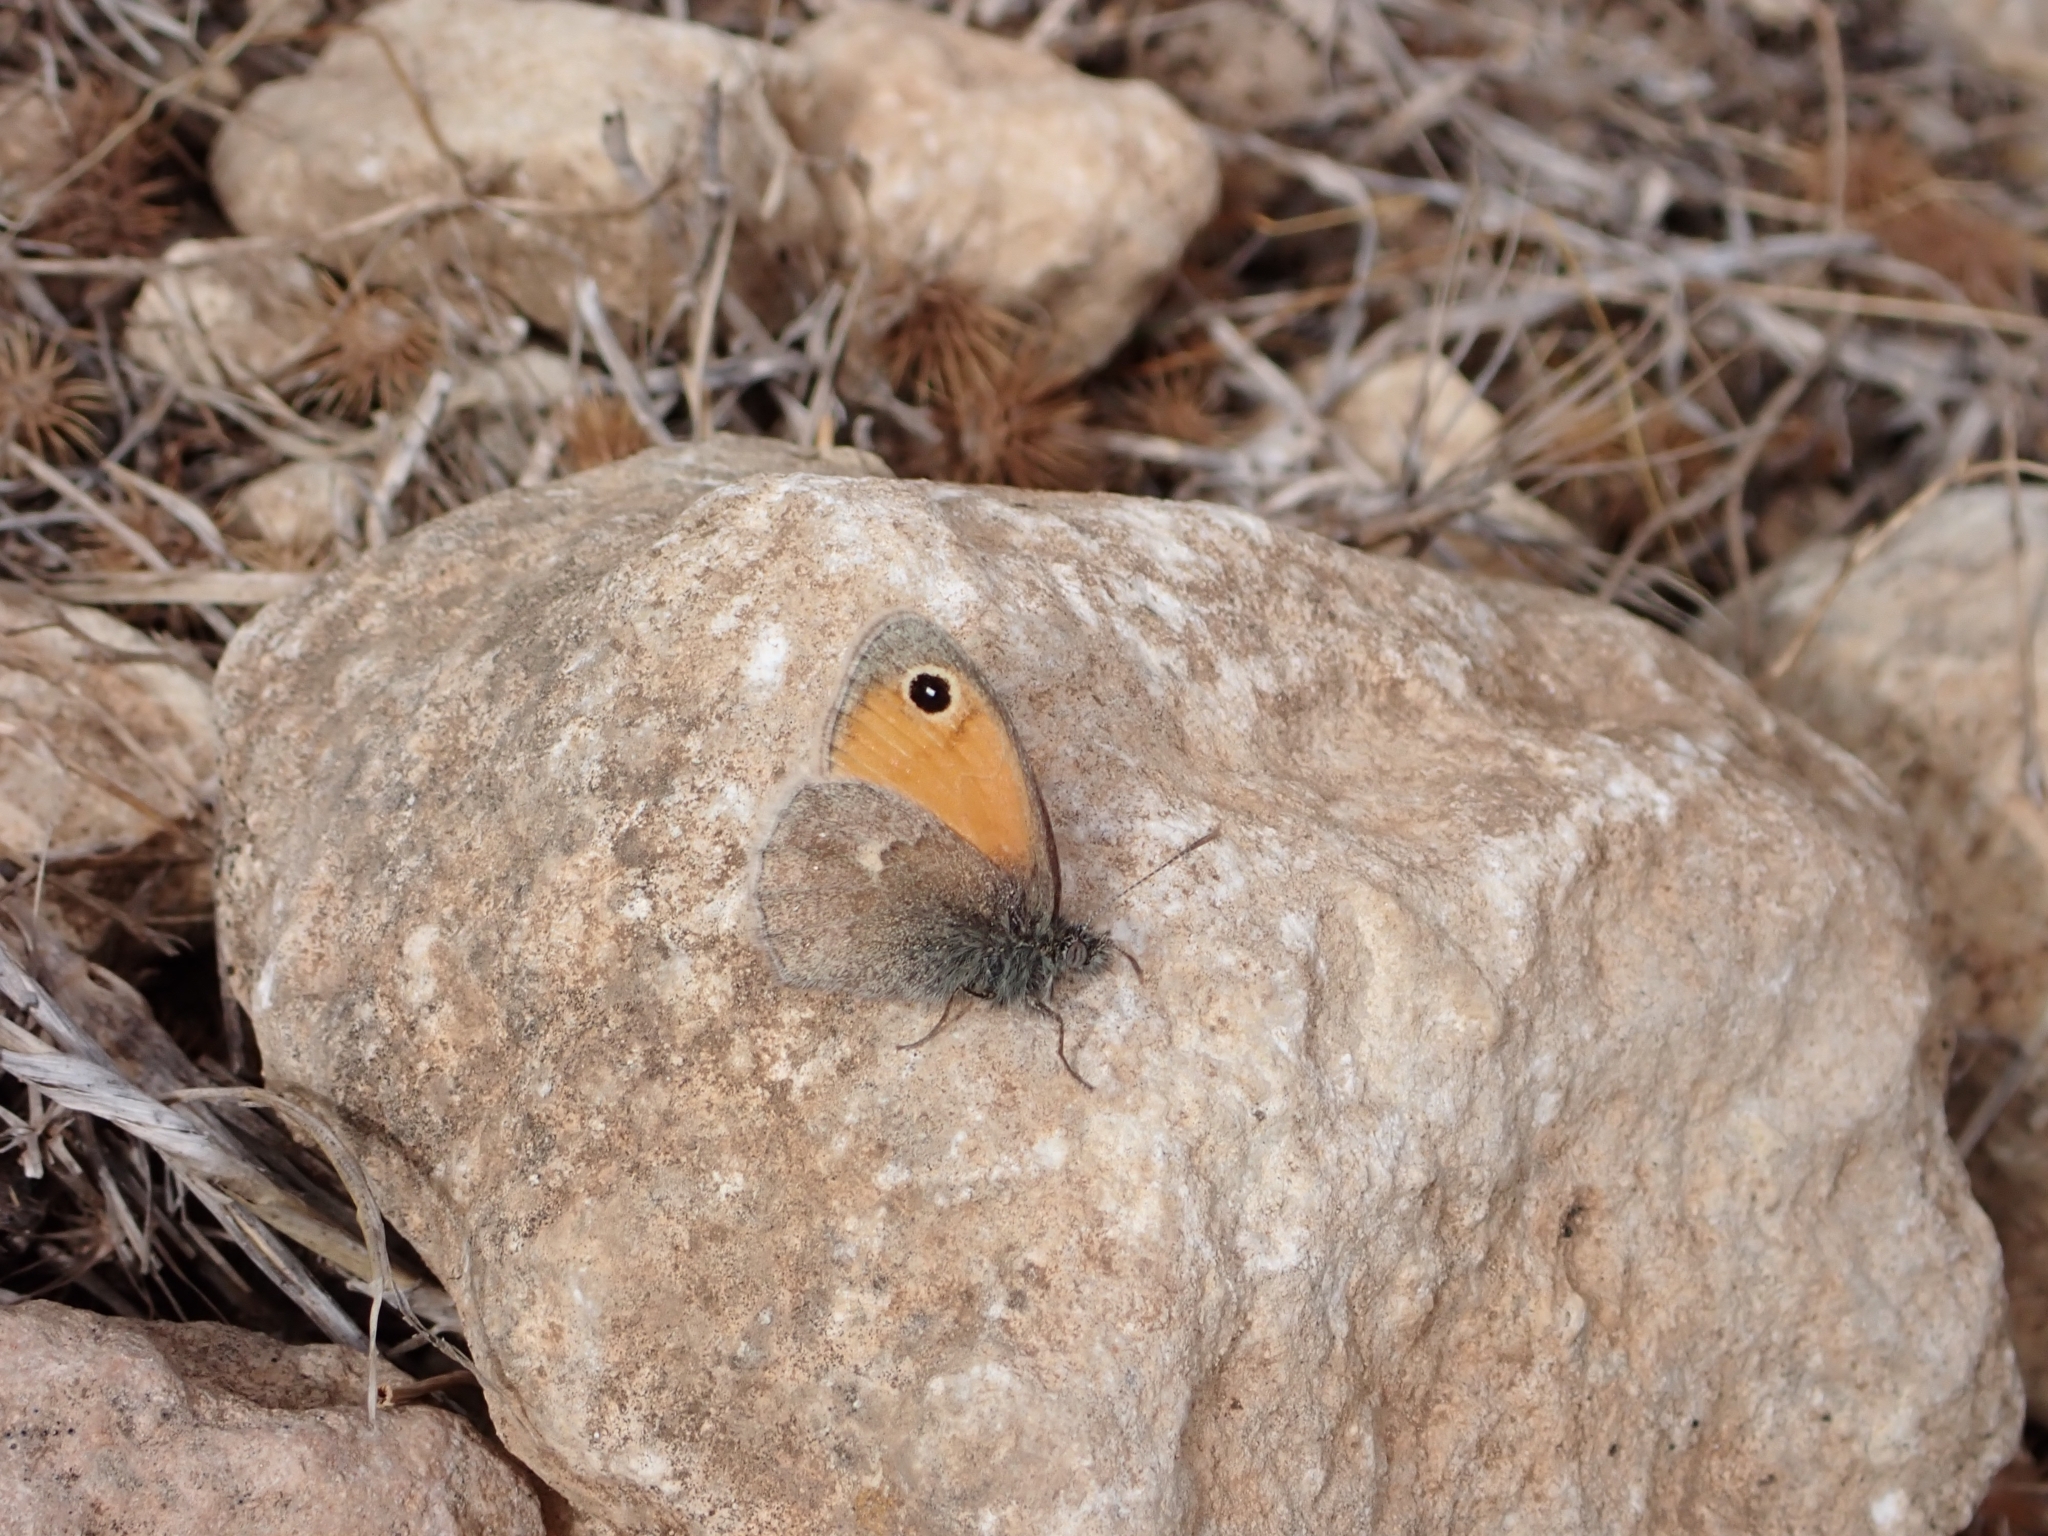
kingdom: Animalia
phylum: Arthropoda
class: Insecta
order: Lepidoptera
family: Nymphalidae
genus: Coenonympha
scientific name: Coenonympha pamphilus
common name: Small heath
